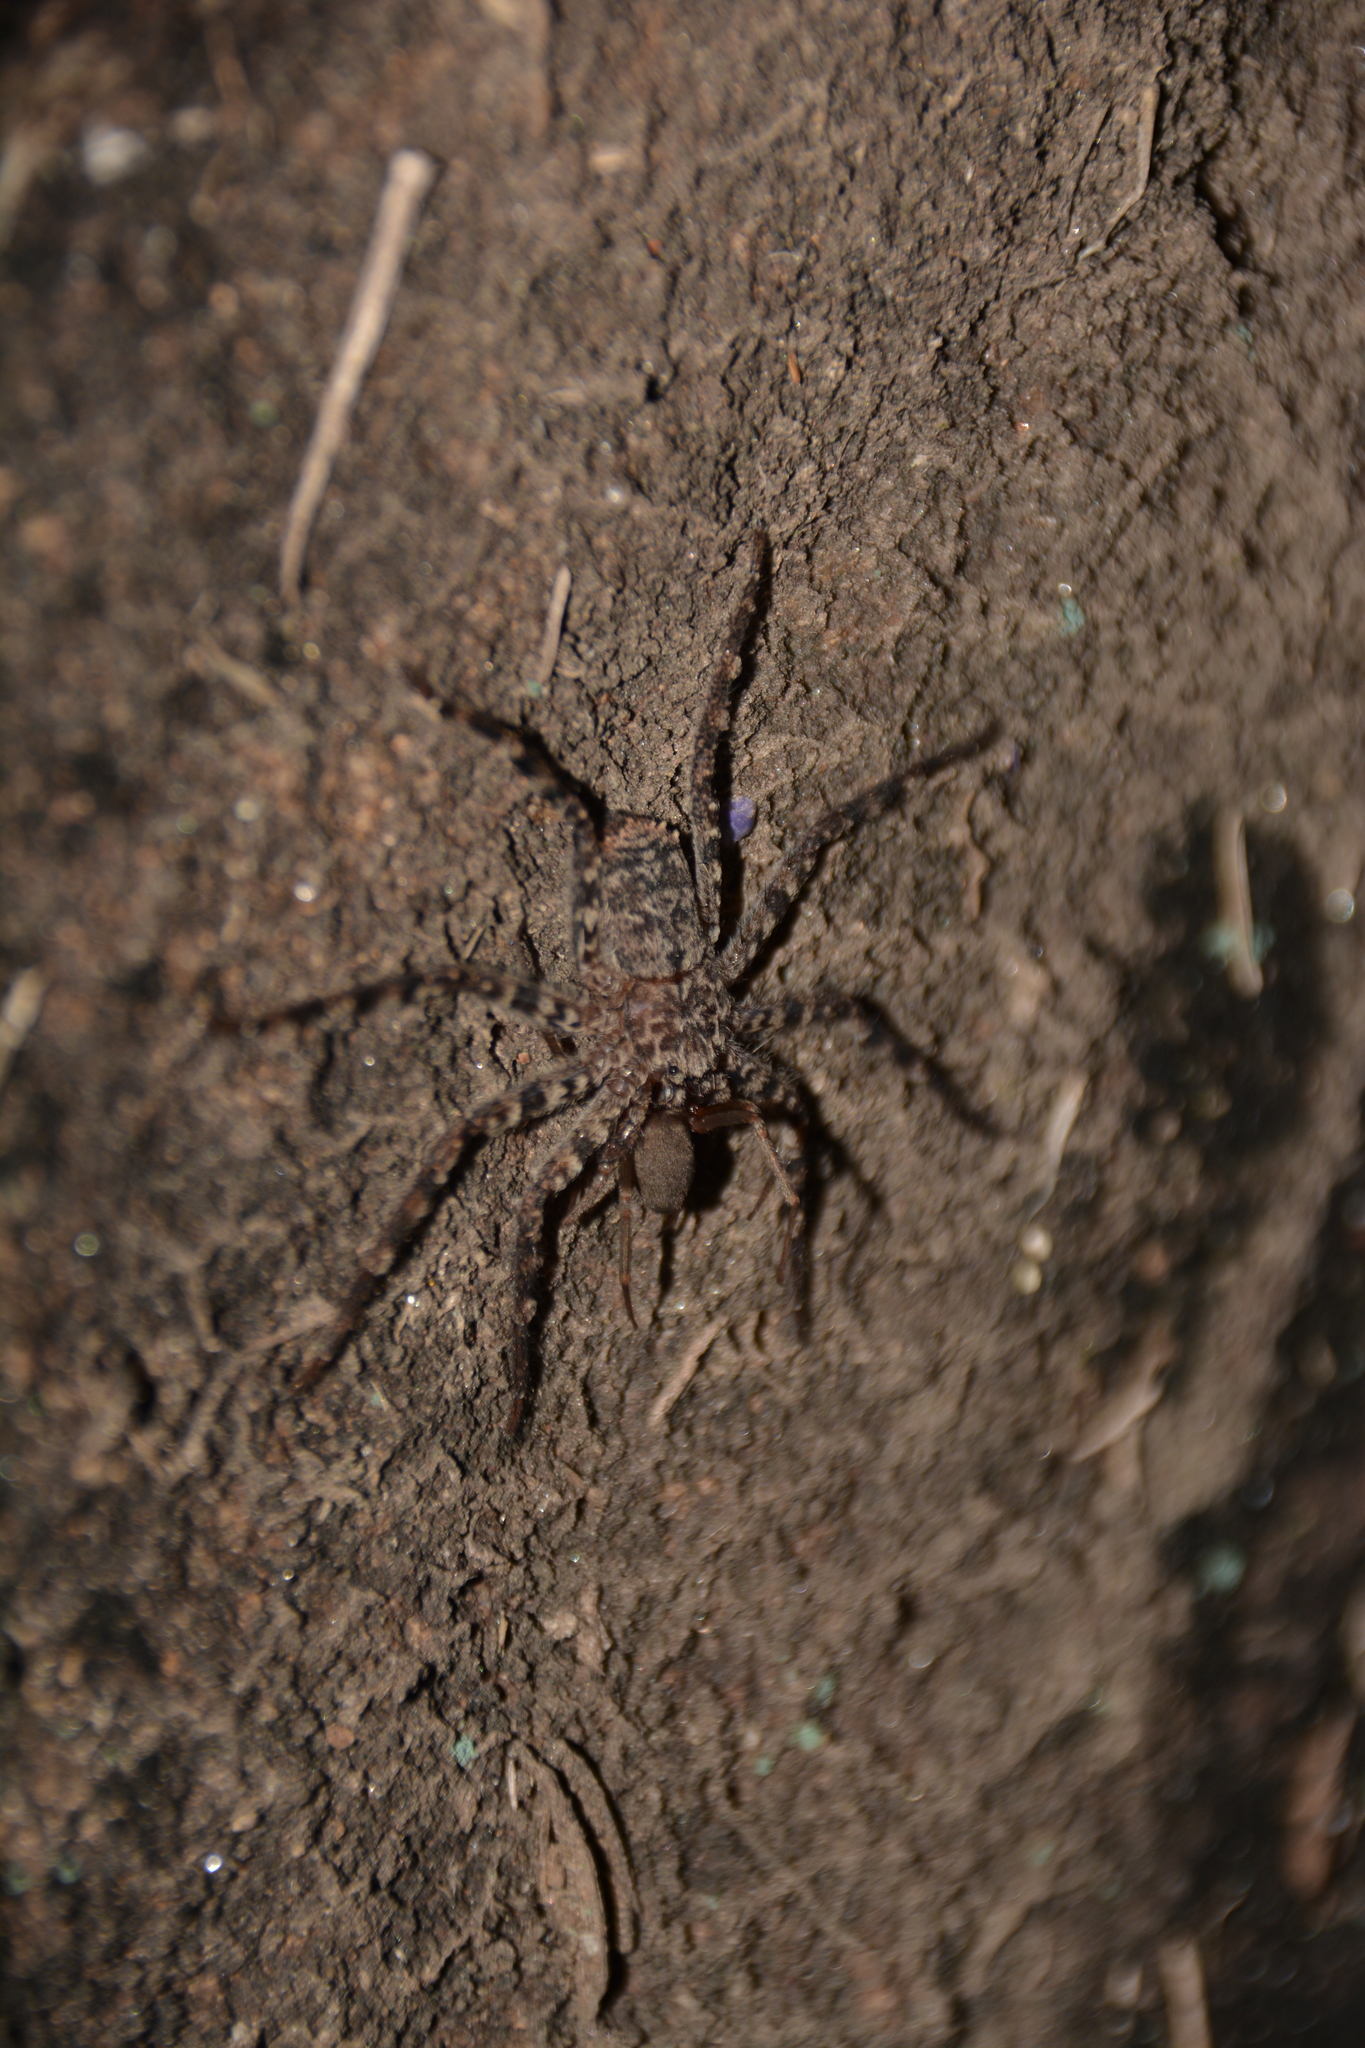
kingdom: Animalia
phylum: Arthropoda
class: Arachnida
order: Araneae
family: Selenopidae
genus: Selenops
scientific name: Selenops
